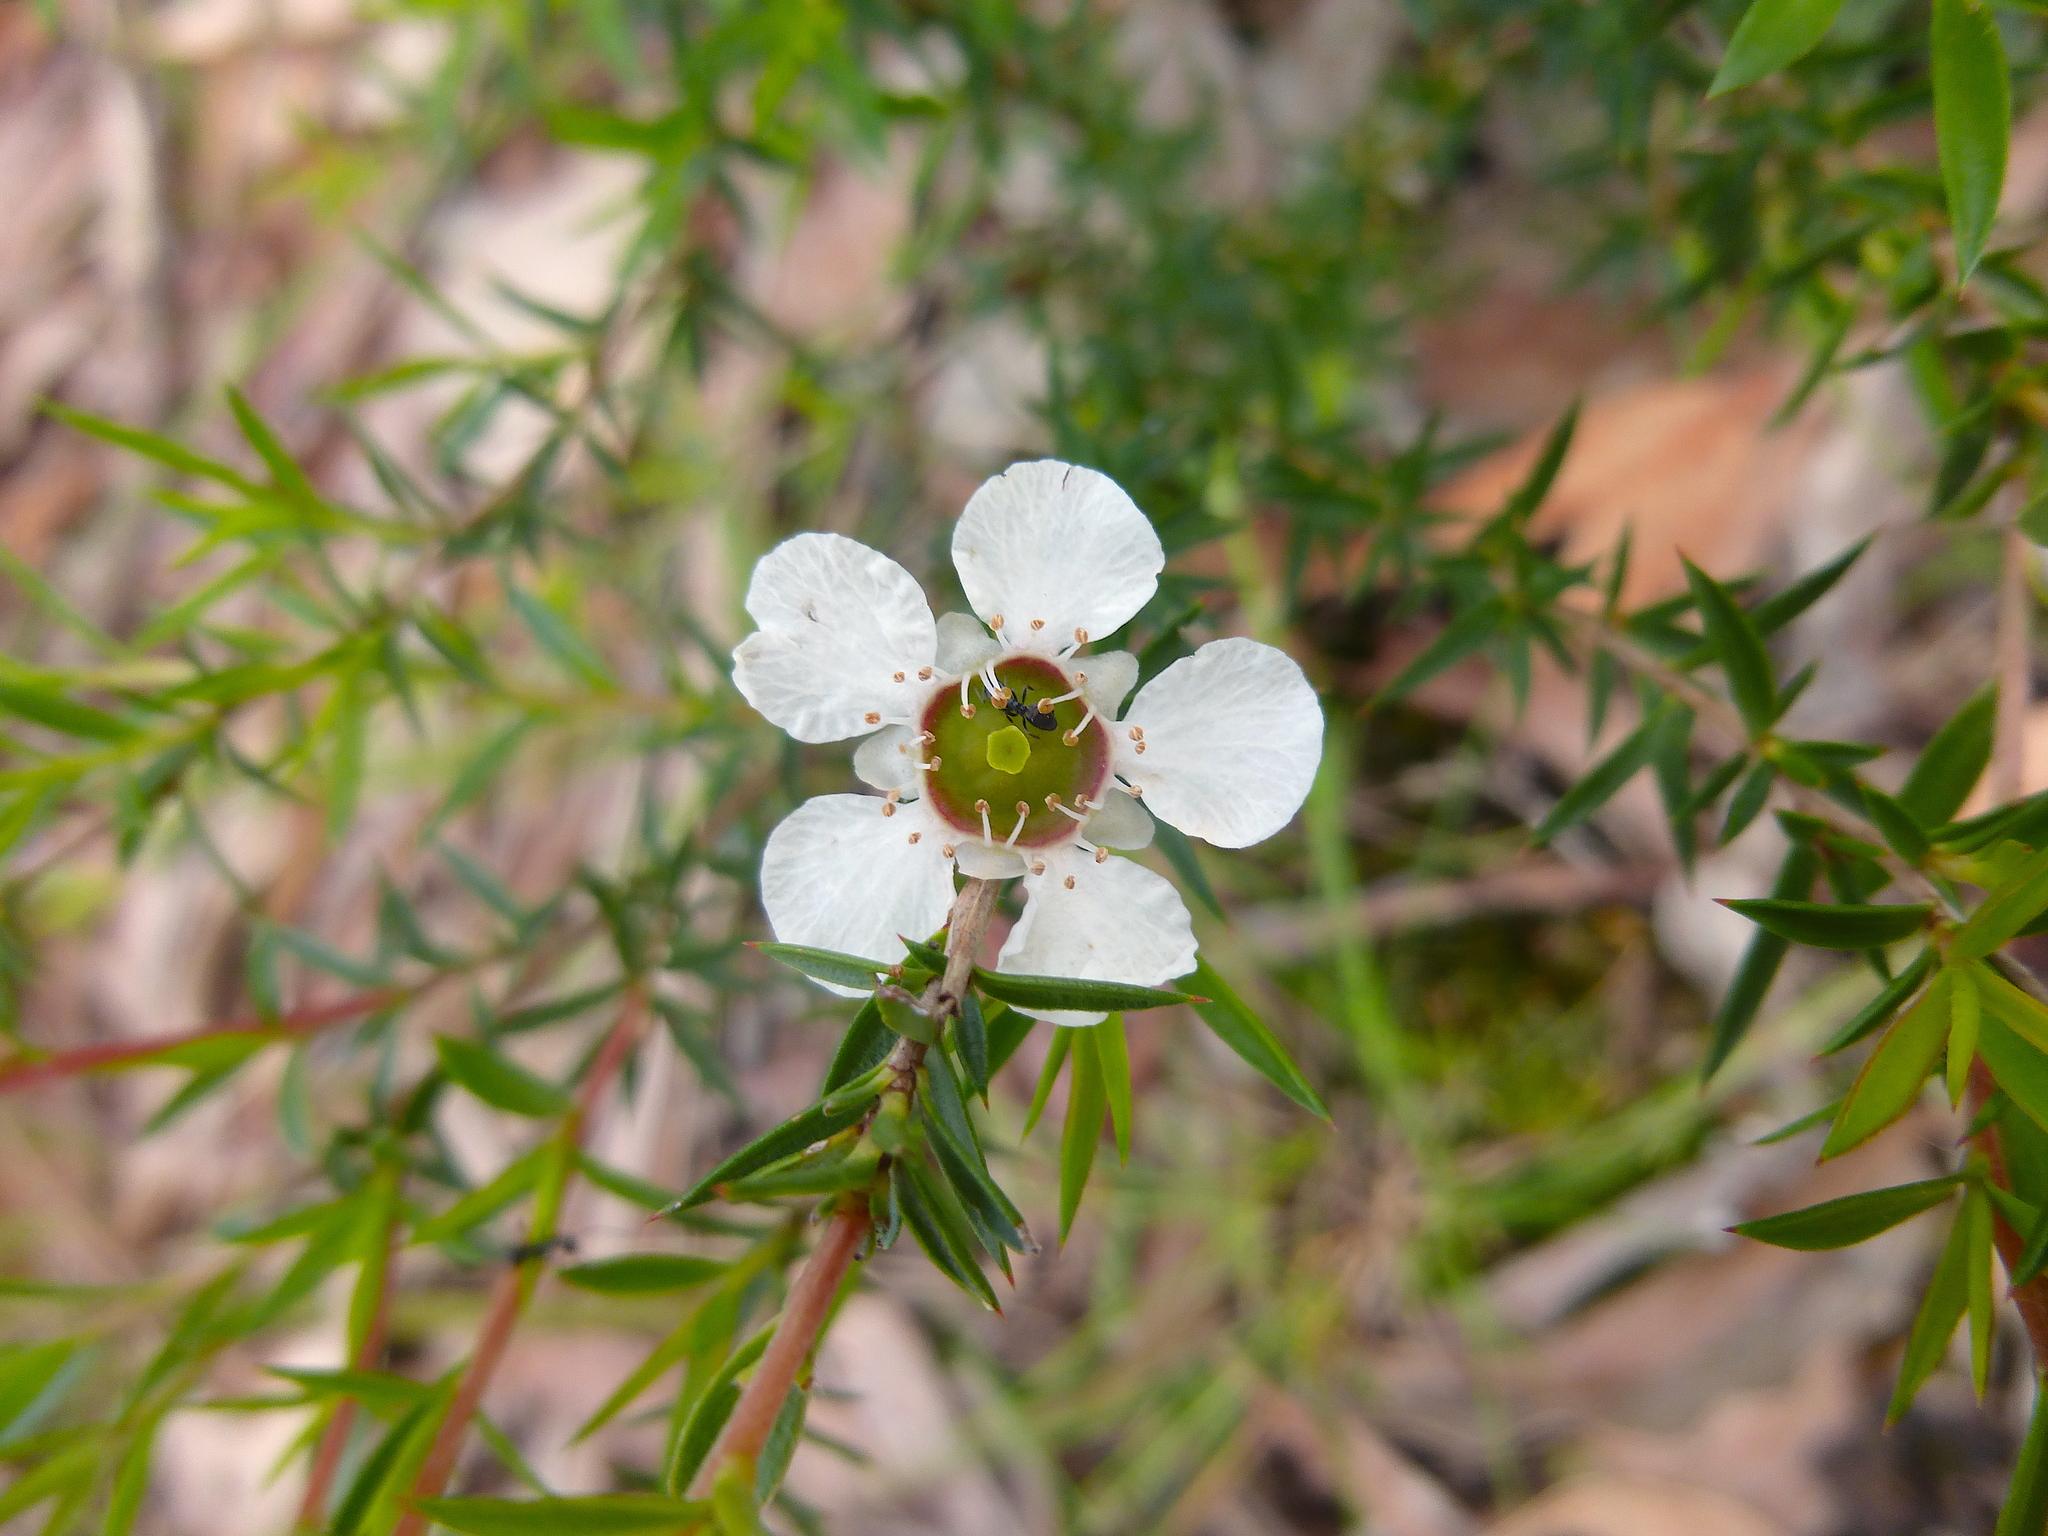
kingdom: Plantae
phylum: Tracheophyta
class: Magnoliopsida
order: Myrtales
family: Myrtaceae
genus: Leptospermum
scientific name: Leptospermum continentale
